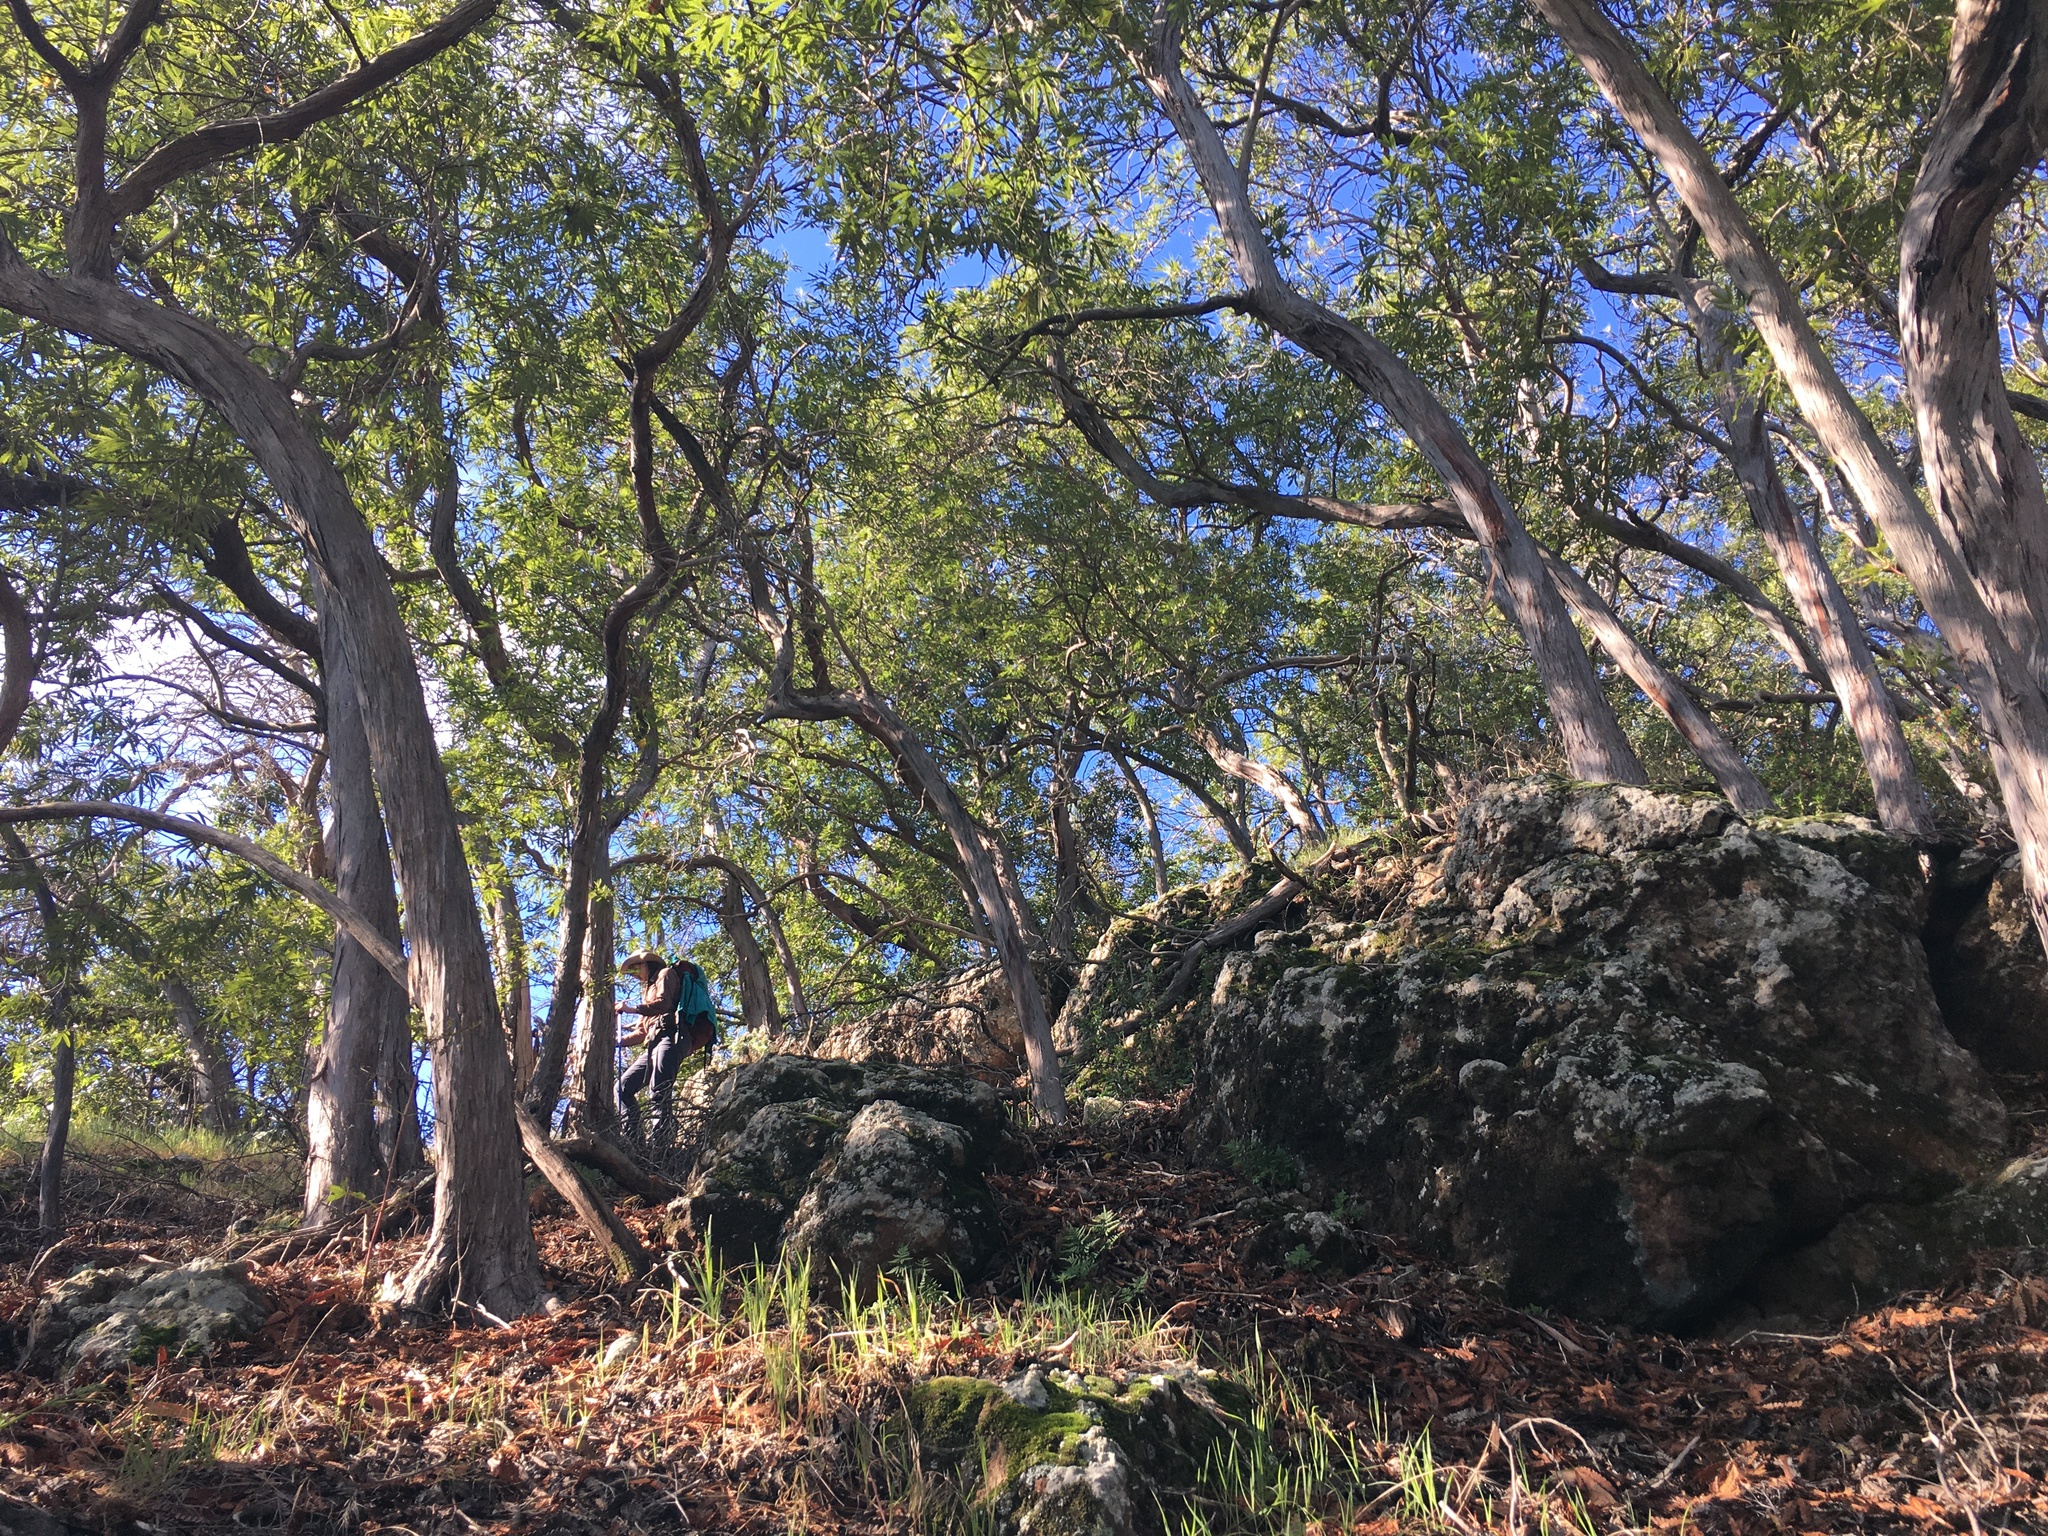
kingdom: Plantae
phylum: Tracheophyta
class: Magnoliopsida
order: Rosales
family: Rosaceae
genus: Lyonothamnus
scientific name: Lyonothamnus floribundus
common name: Catalina ironwood
